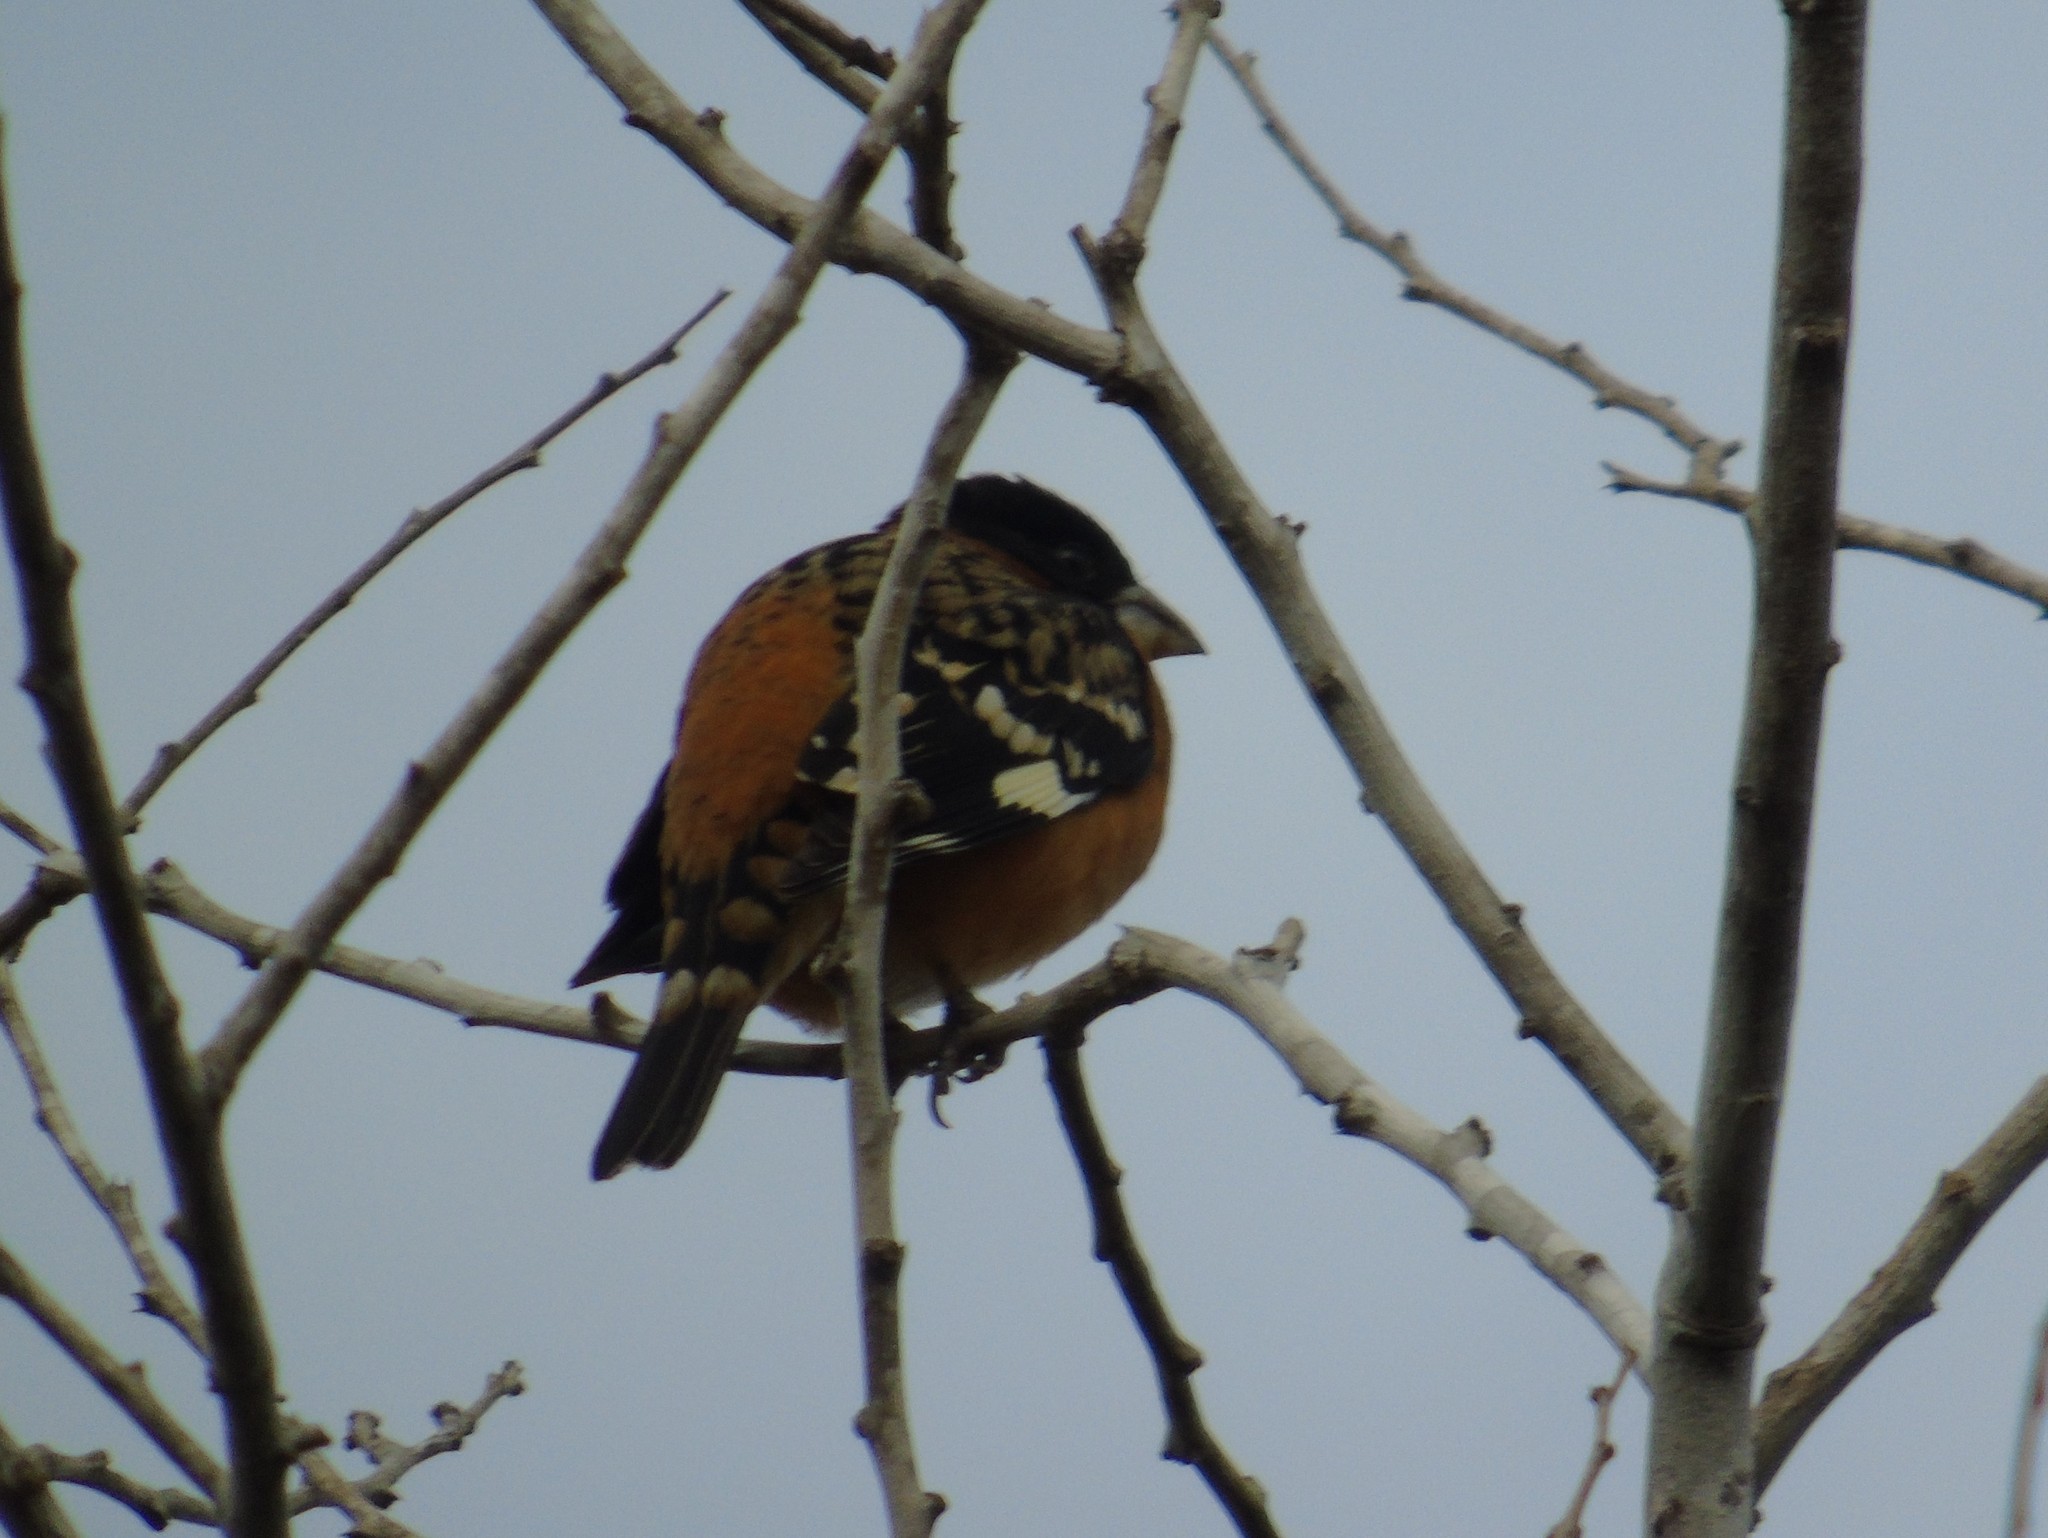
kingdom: Animalia
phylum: Chordata
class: Aves
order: Passeriformes
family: Cardinalidae
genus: Pheucticus
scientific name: Pheucticus melanocephalus
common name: Black-headed grosbeak
